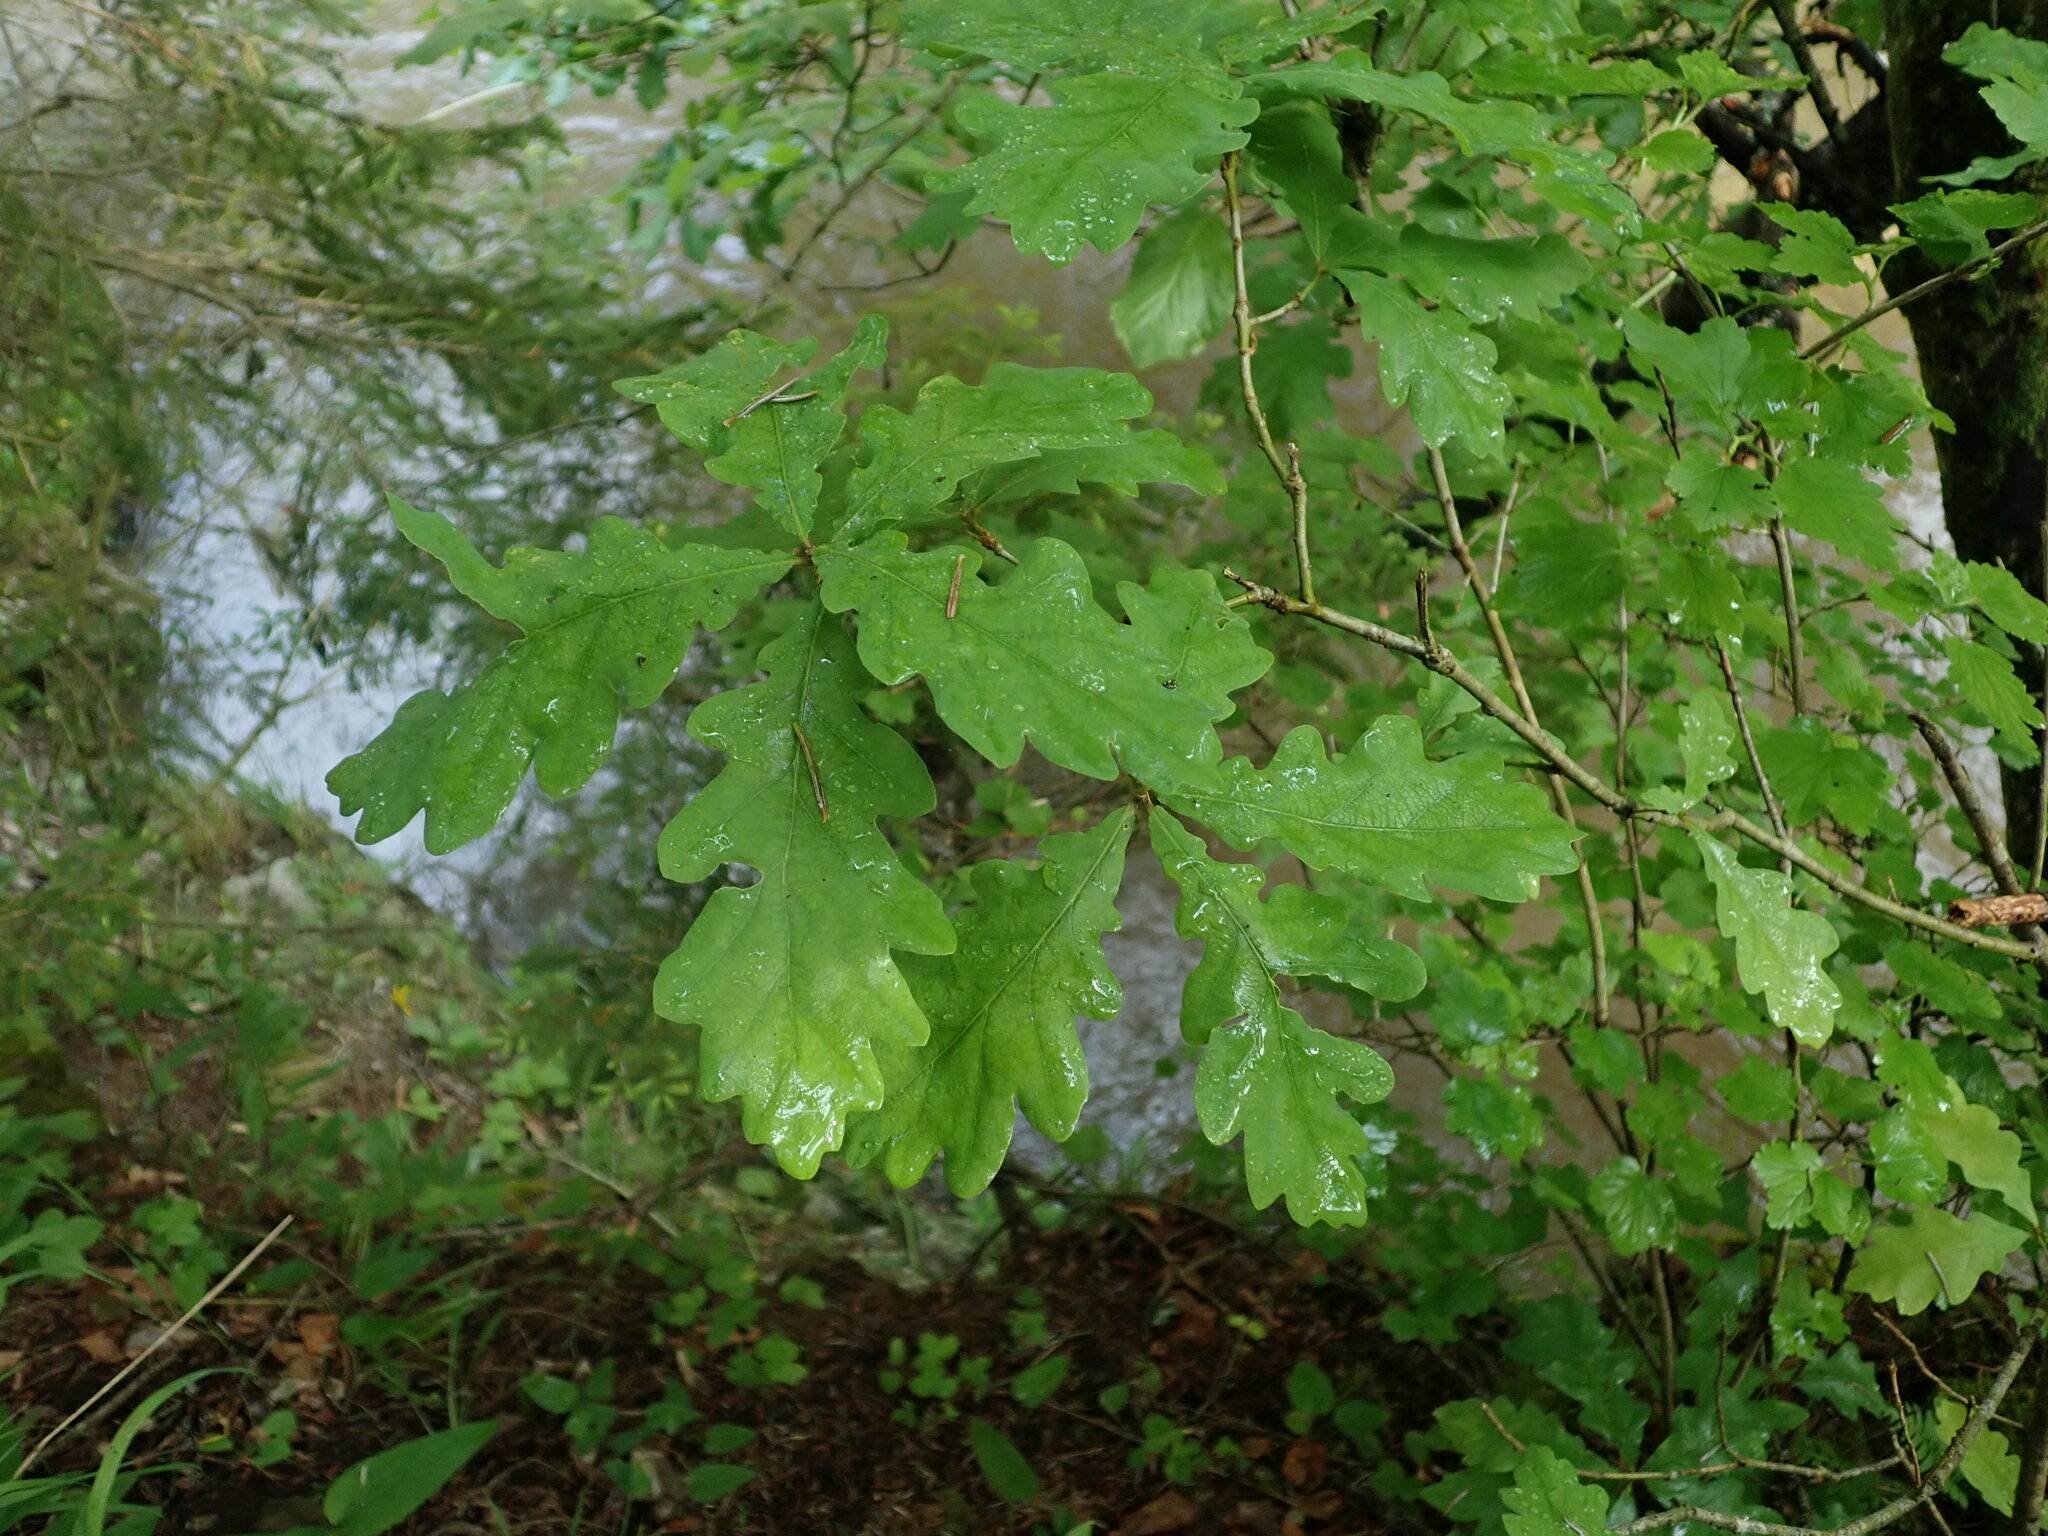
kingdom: Plantae
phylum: Tracheophyta
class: Magnoliopsida
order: Fagales
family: Fagaceae
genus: Quercus
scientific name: Quercus rosacea
